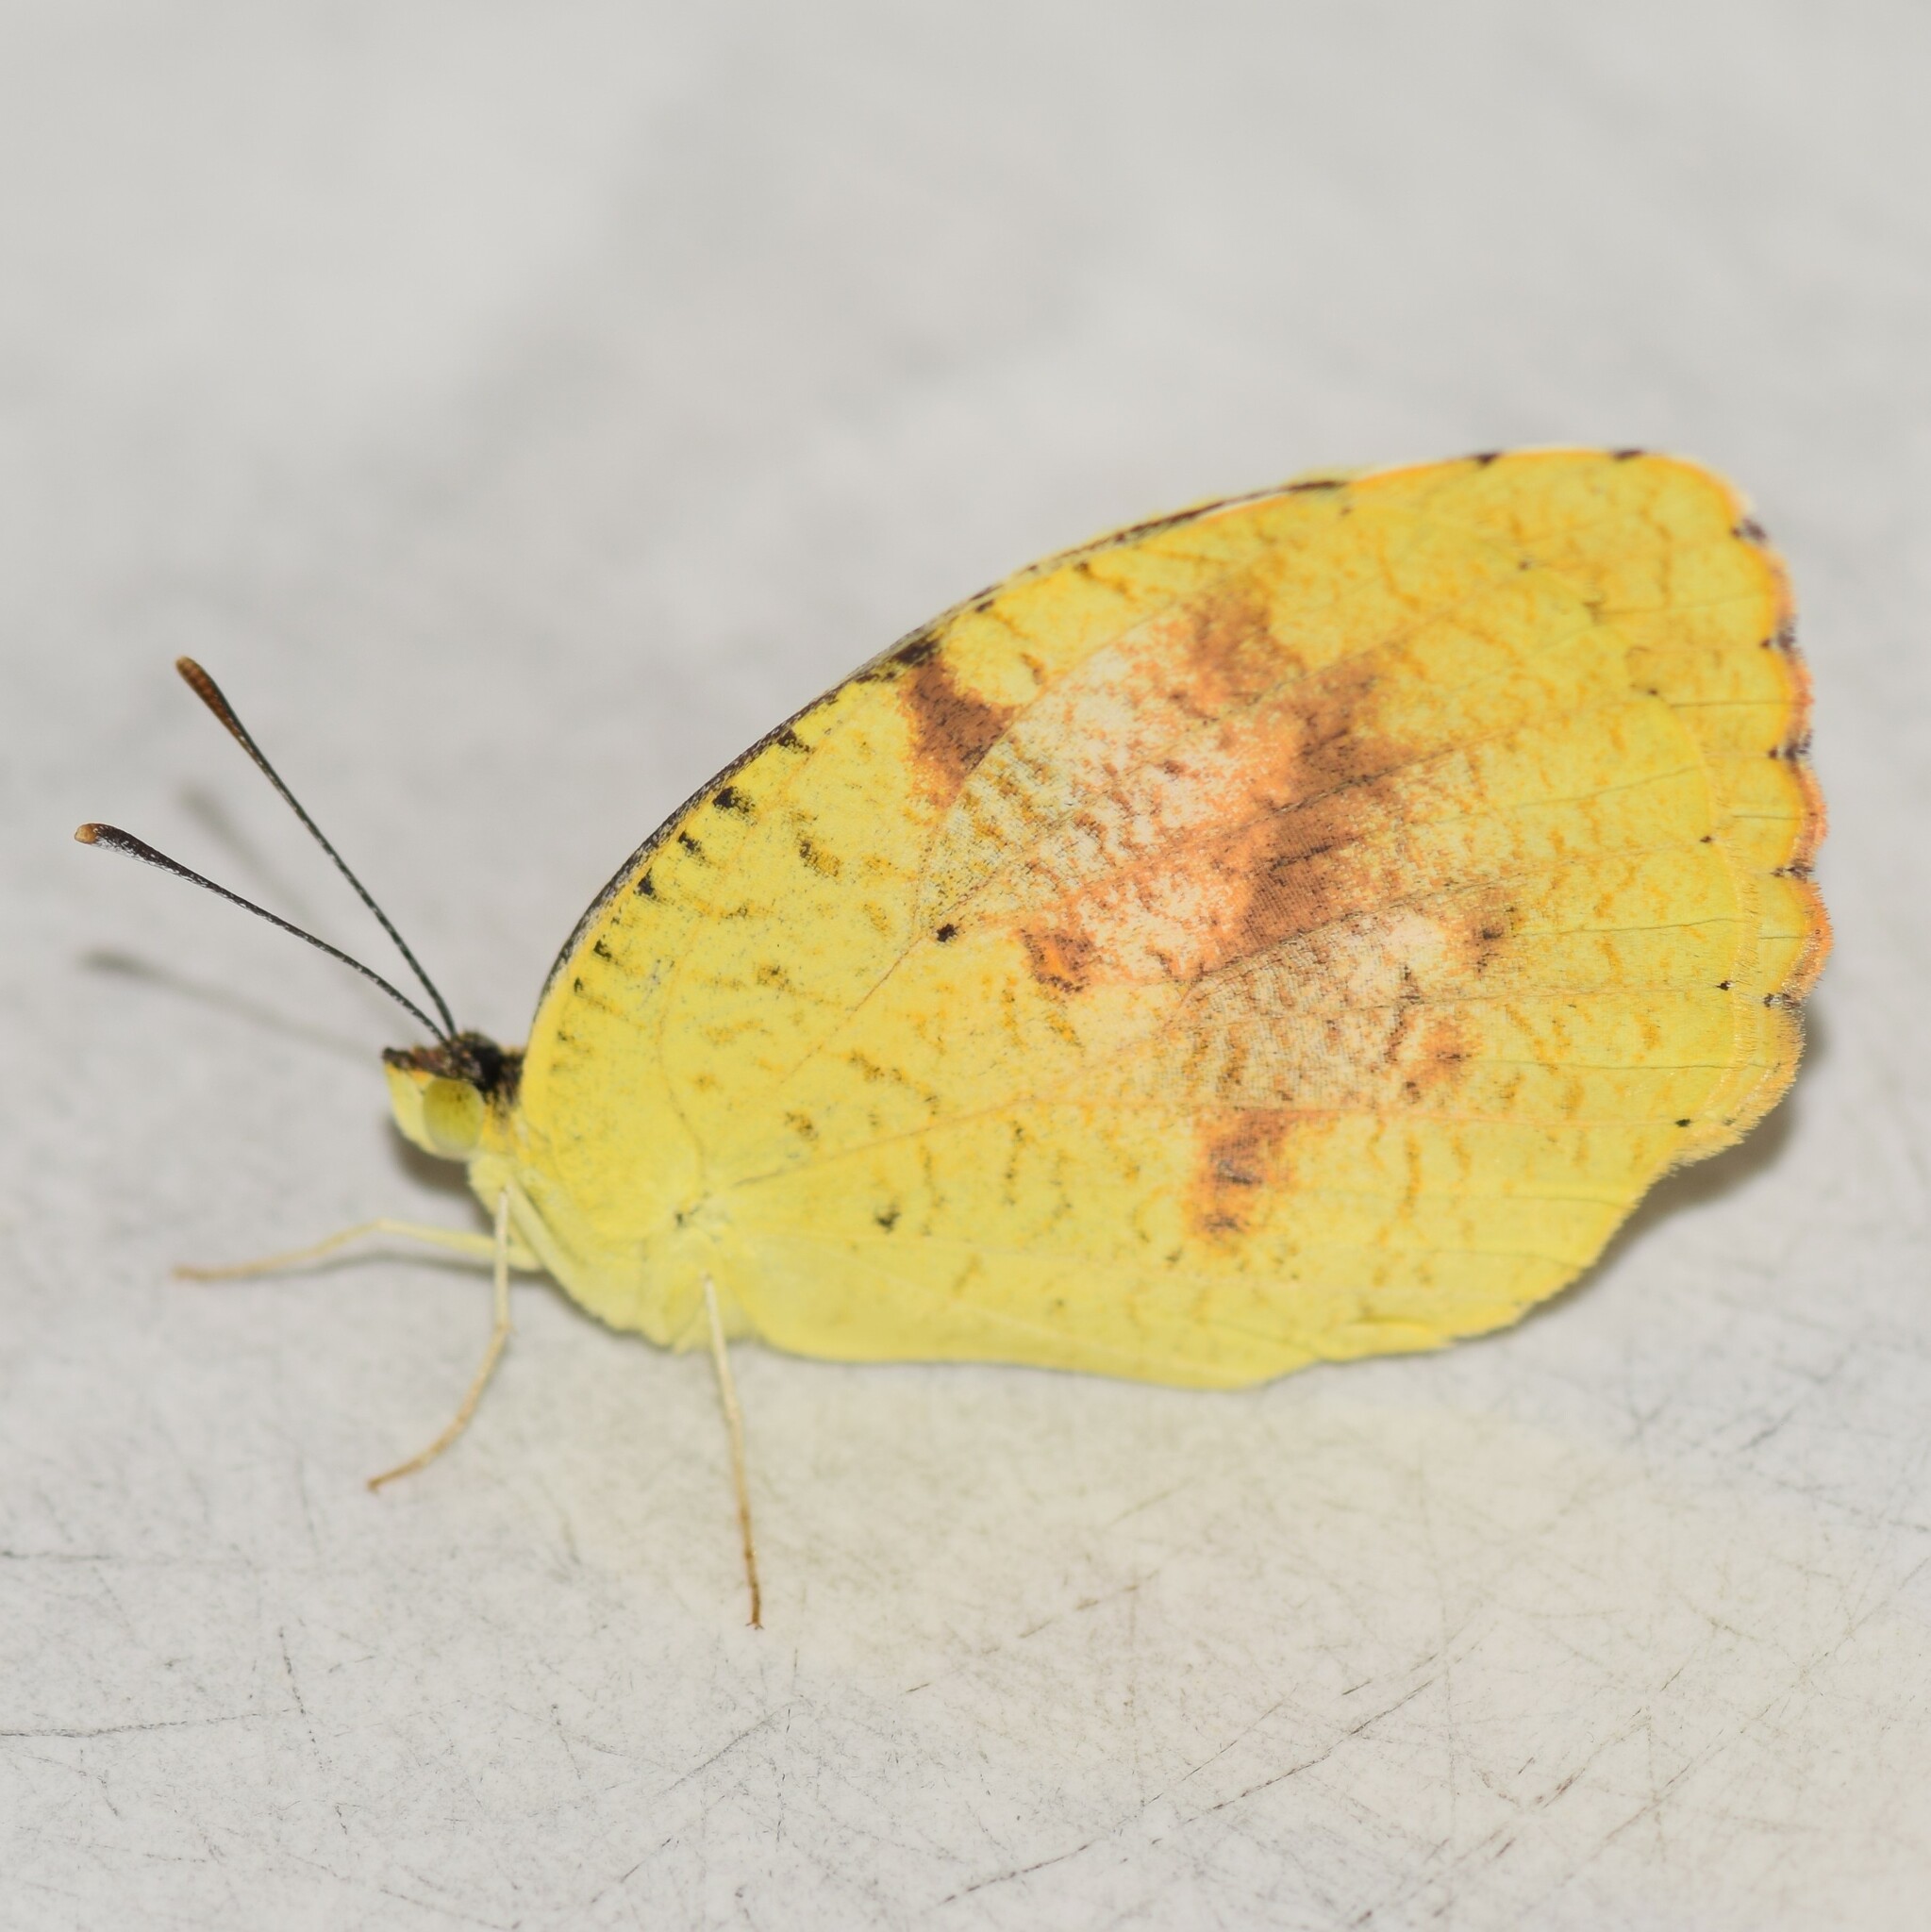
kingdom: Animalia
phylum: Arthropoda
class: Insecta
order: Lepidoptera
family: Pieridae
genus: Abaeis
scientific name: Abaeis nicippe
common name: Sleepy orange
